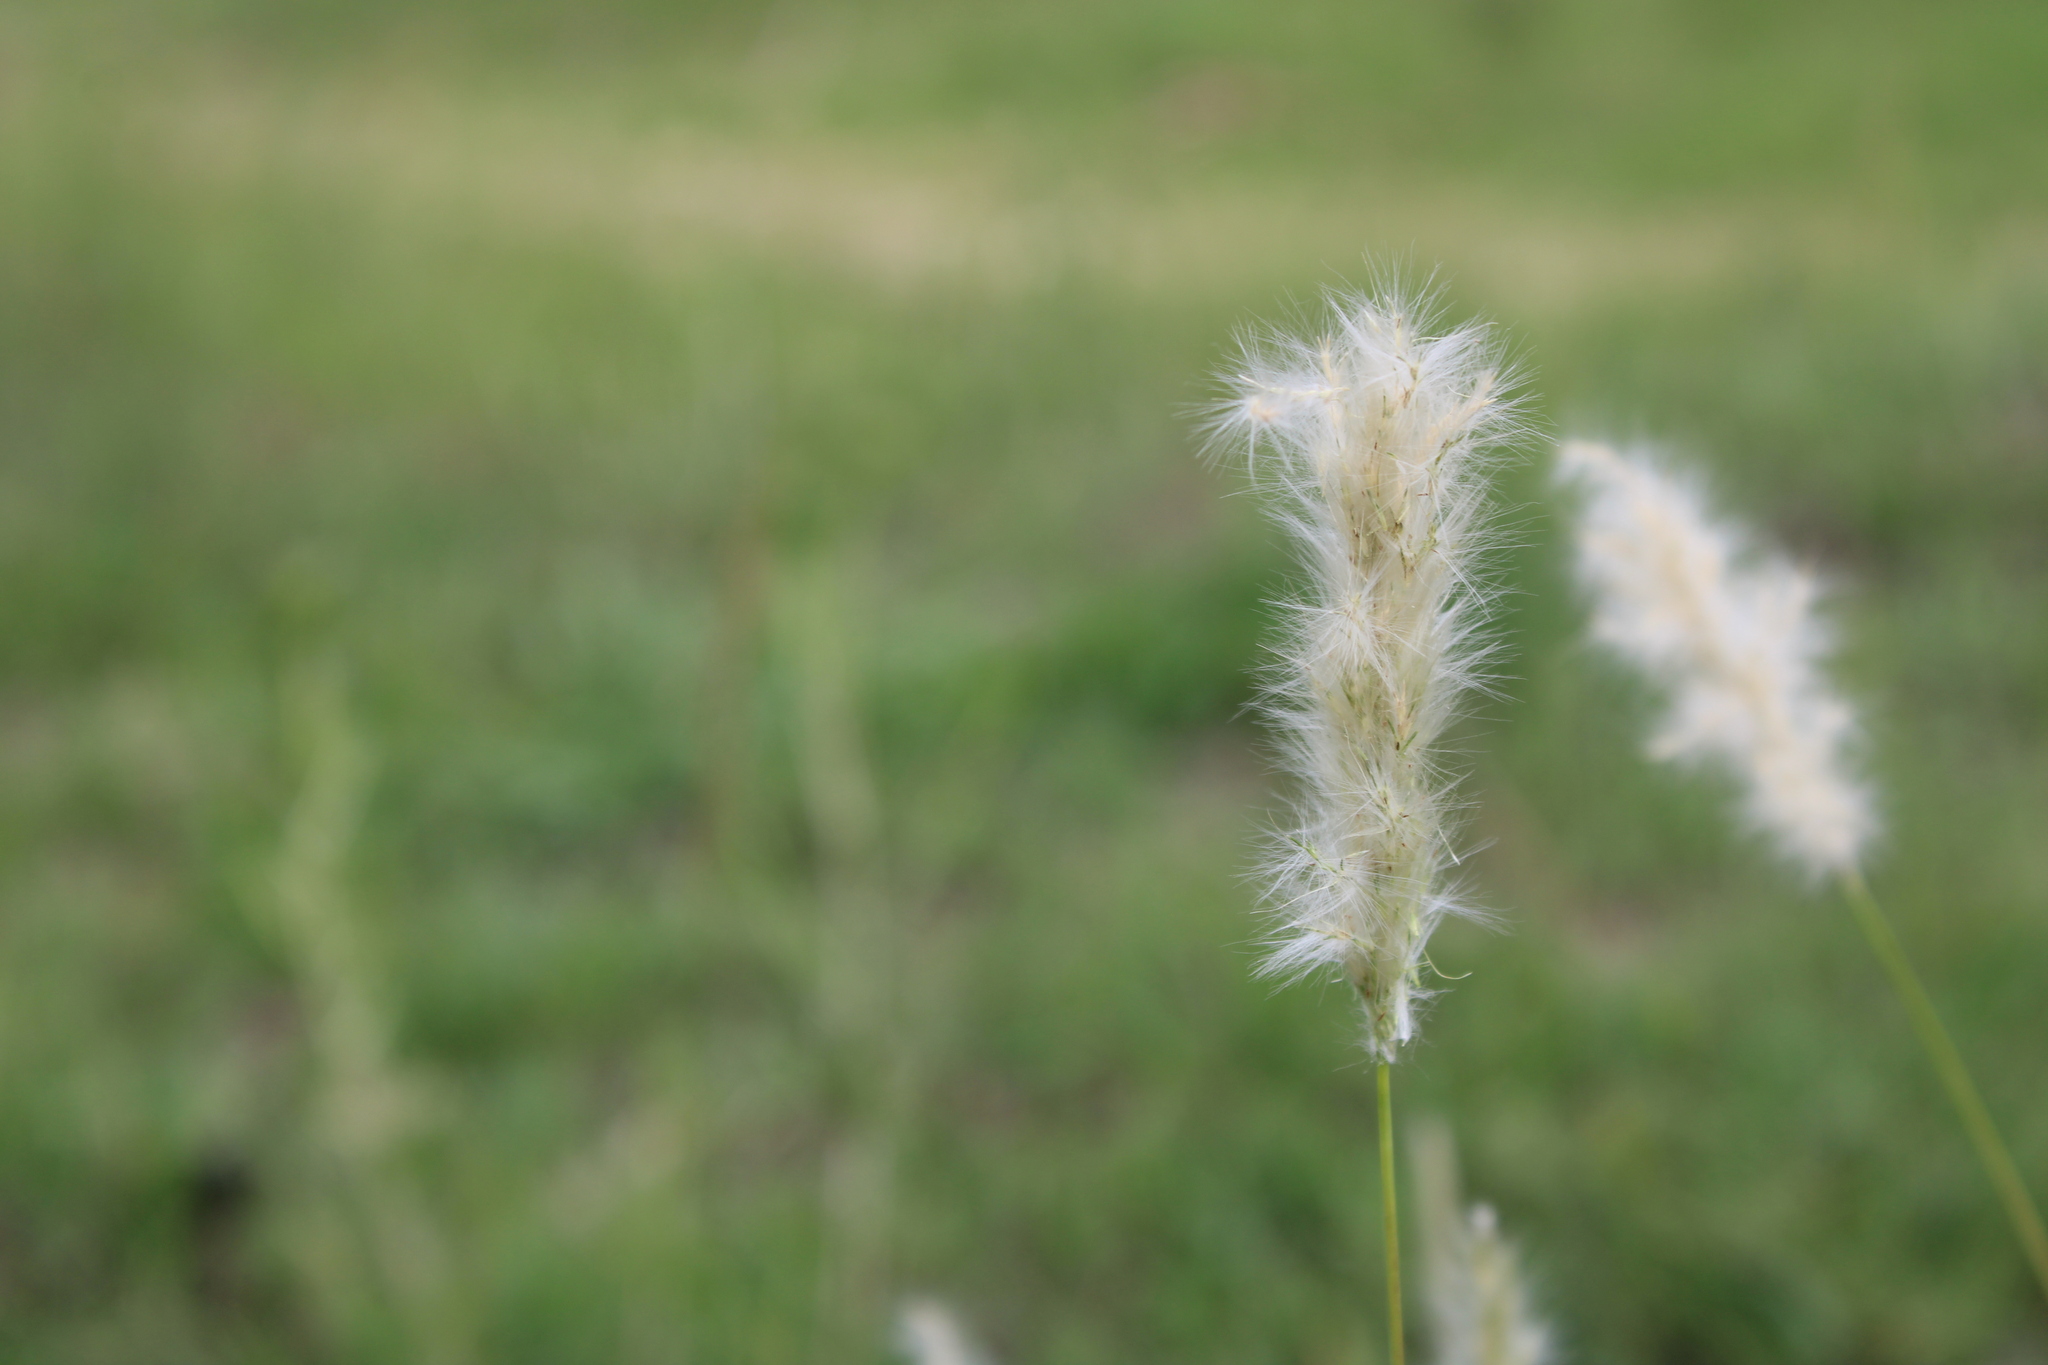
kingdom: Plantae
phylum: Tracheophyta
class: Liliopsida
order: Poales
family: Poaceae
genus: Bothriochloa
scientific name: Bothriochloa laguroides
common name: Silver bluestem
